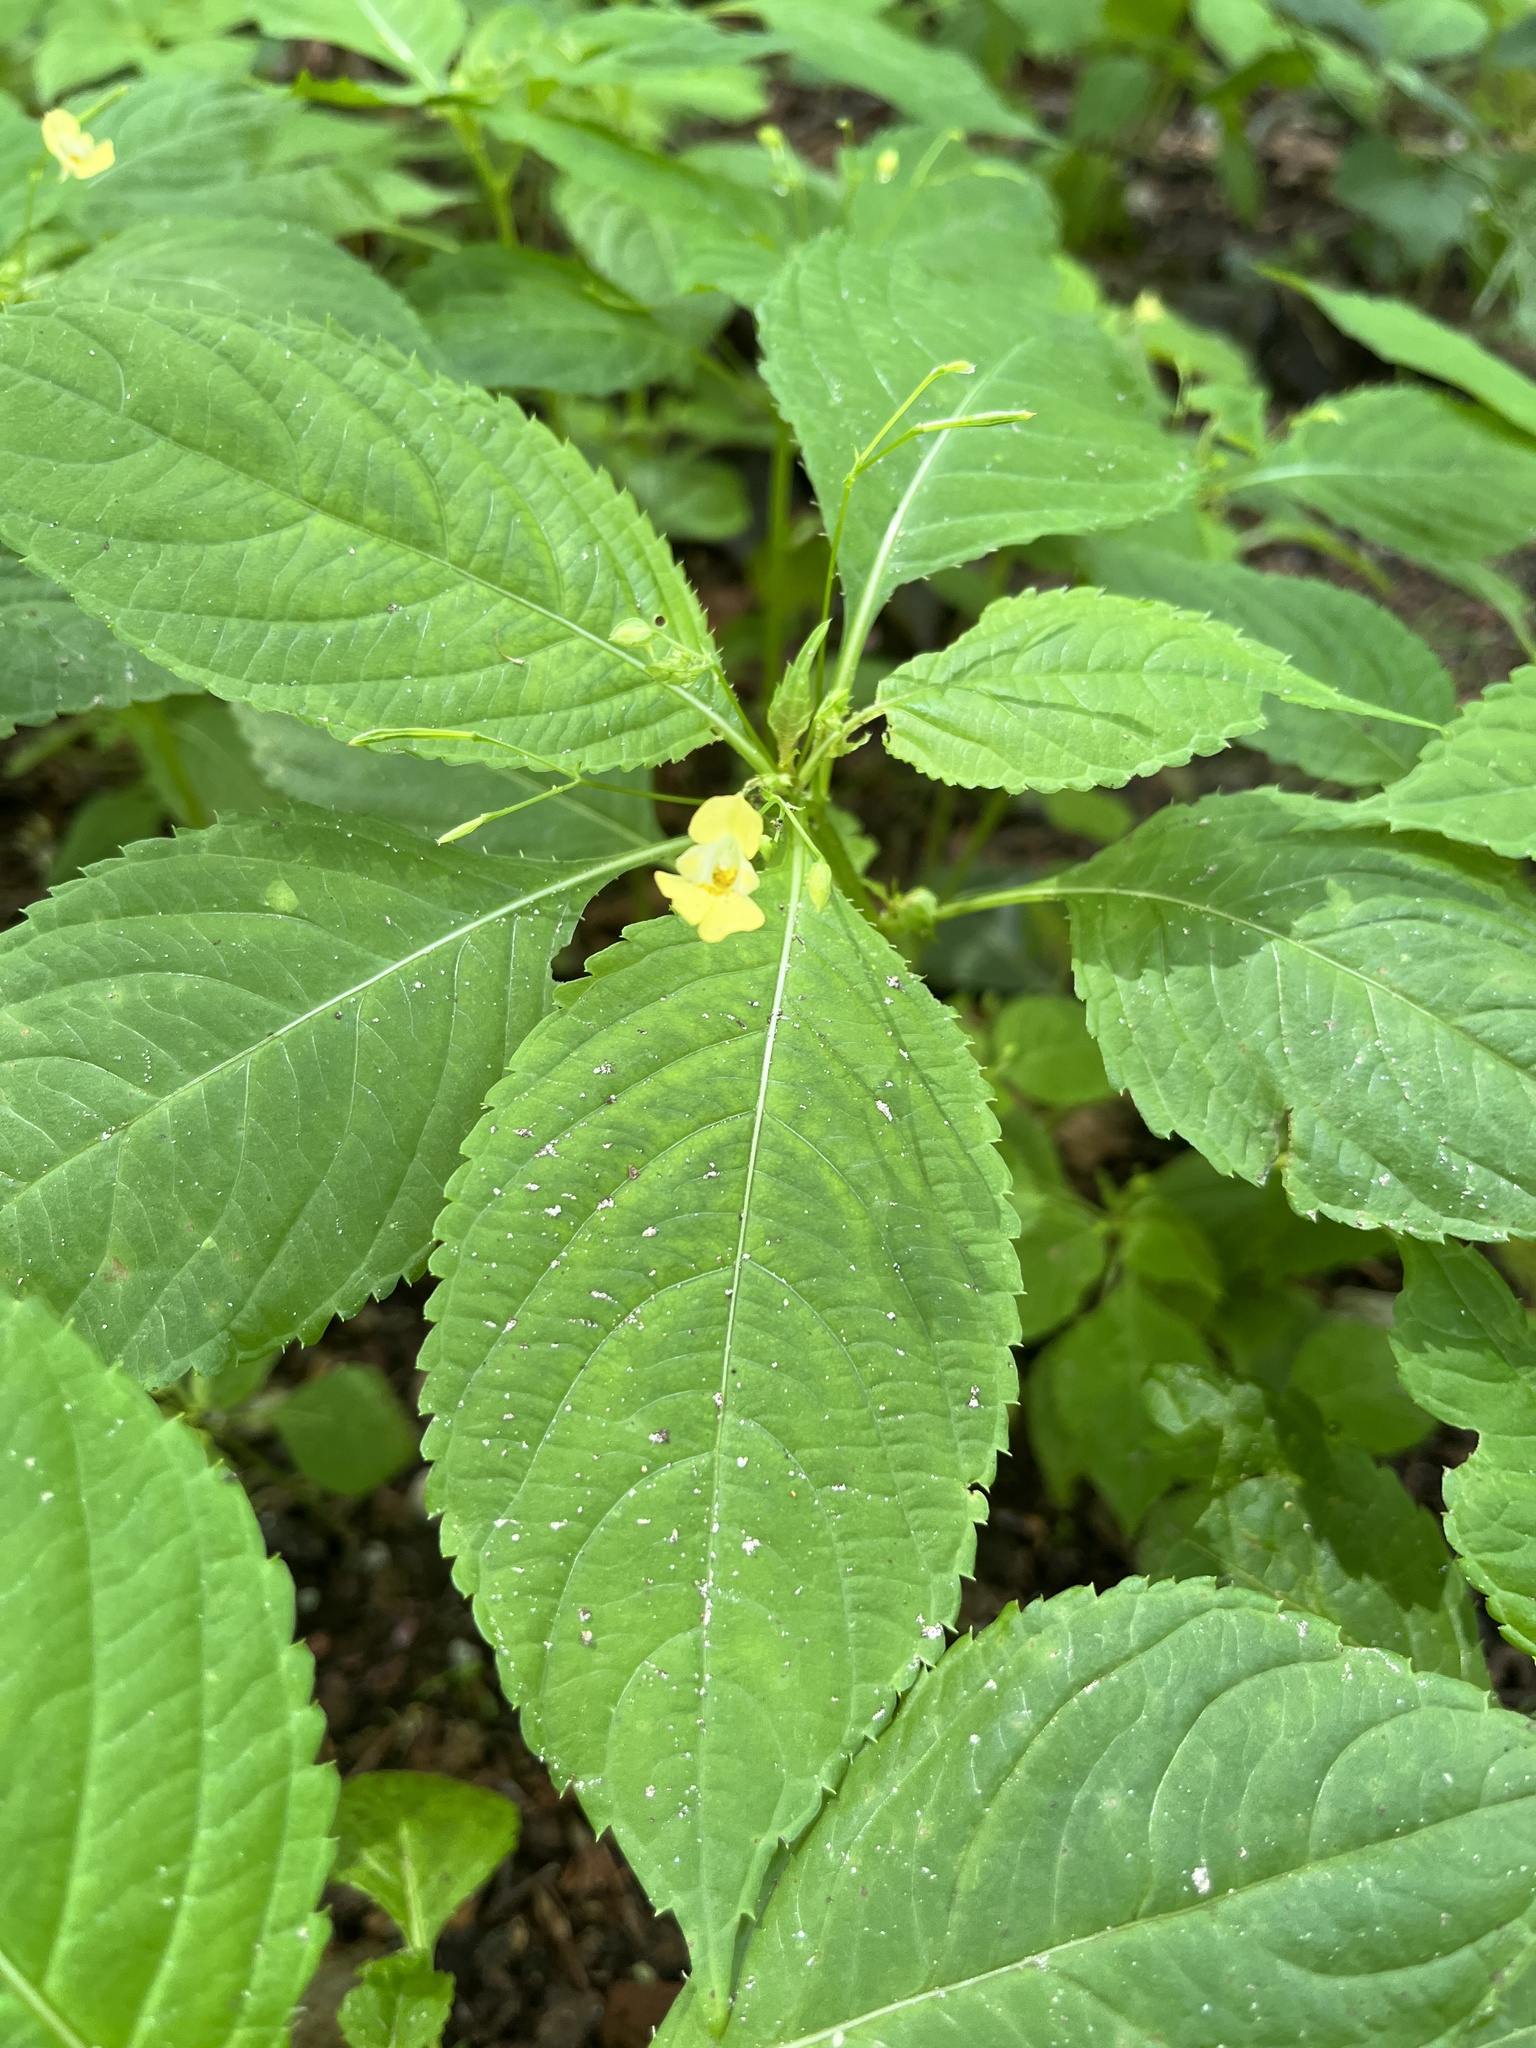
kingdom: Plantae
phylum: Tracheophyta
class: Magnoliopsida
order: Ericales
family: Balsaminaceae
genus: Impatiens
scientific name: Impatiens parviflora
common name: Small balsam
